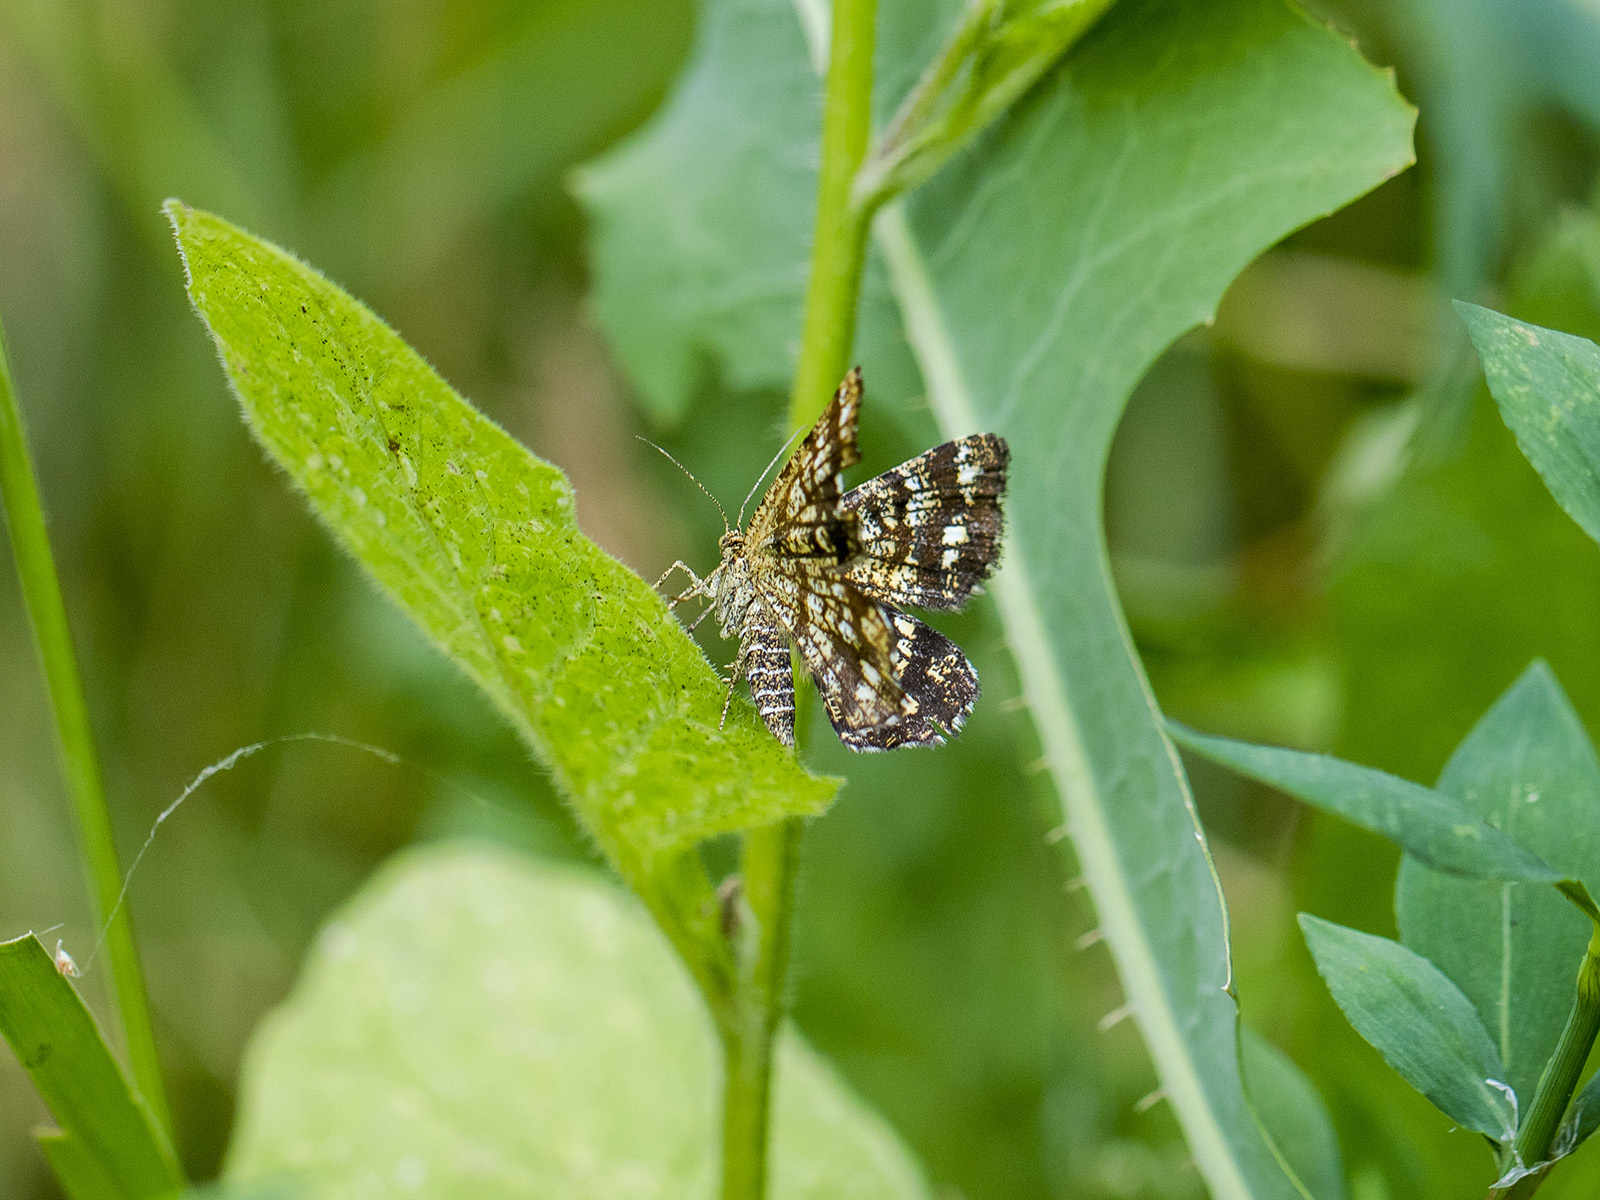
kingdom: Animalia
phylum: Arthropoda
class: Insecta
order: Lepidoptera
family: Geometridae
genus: Chiasmia
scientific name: Chiasmia clathrata
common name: Latticed heath
